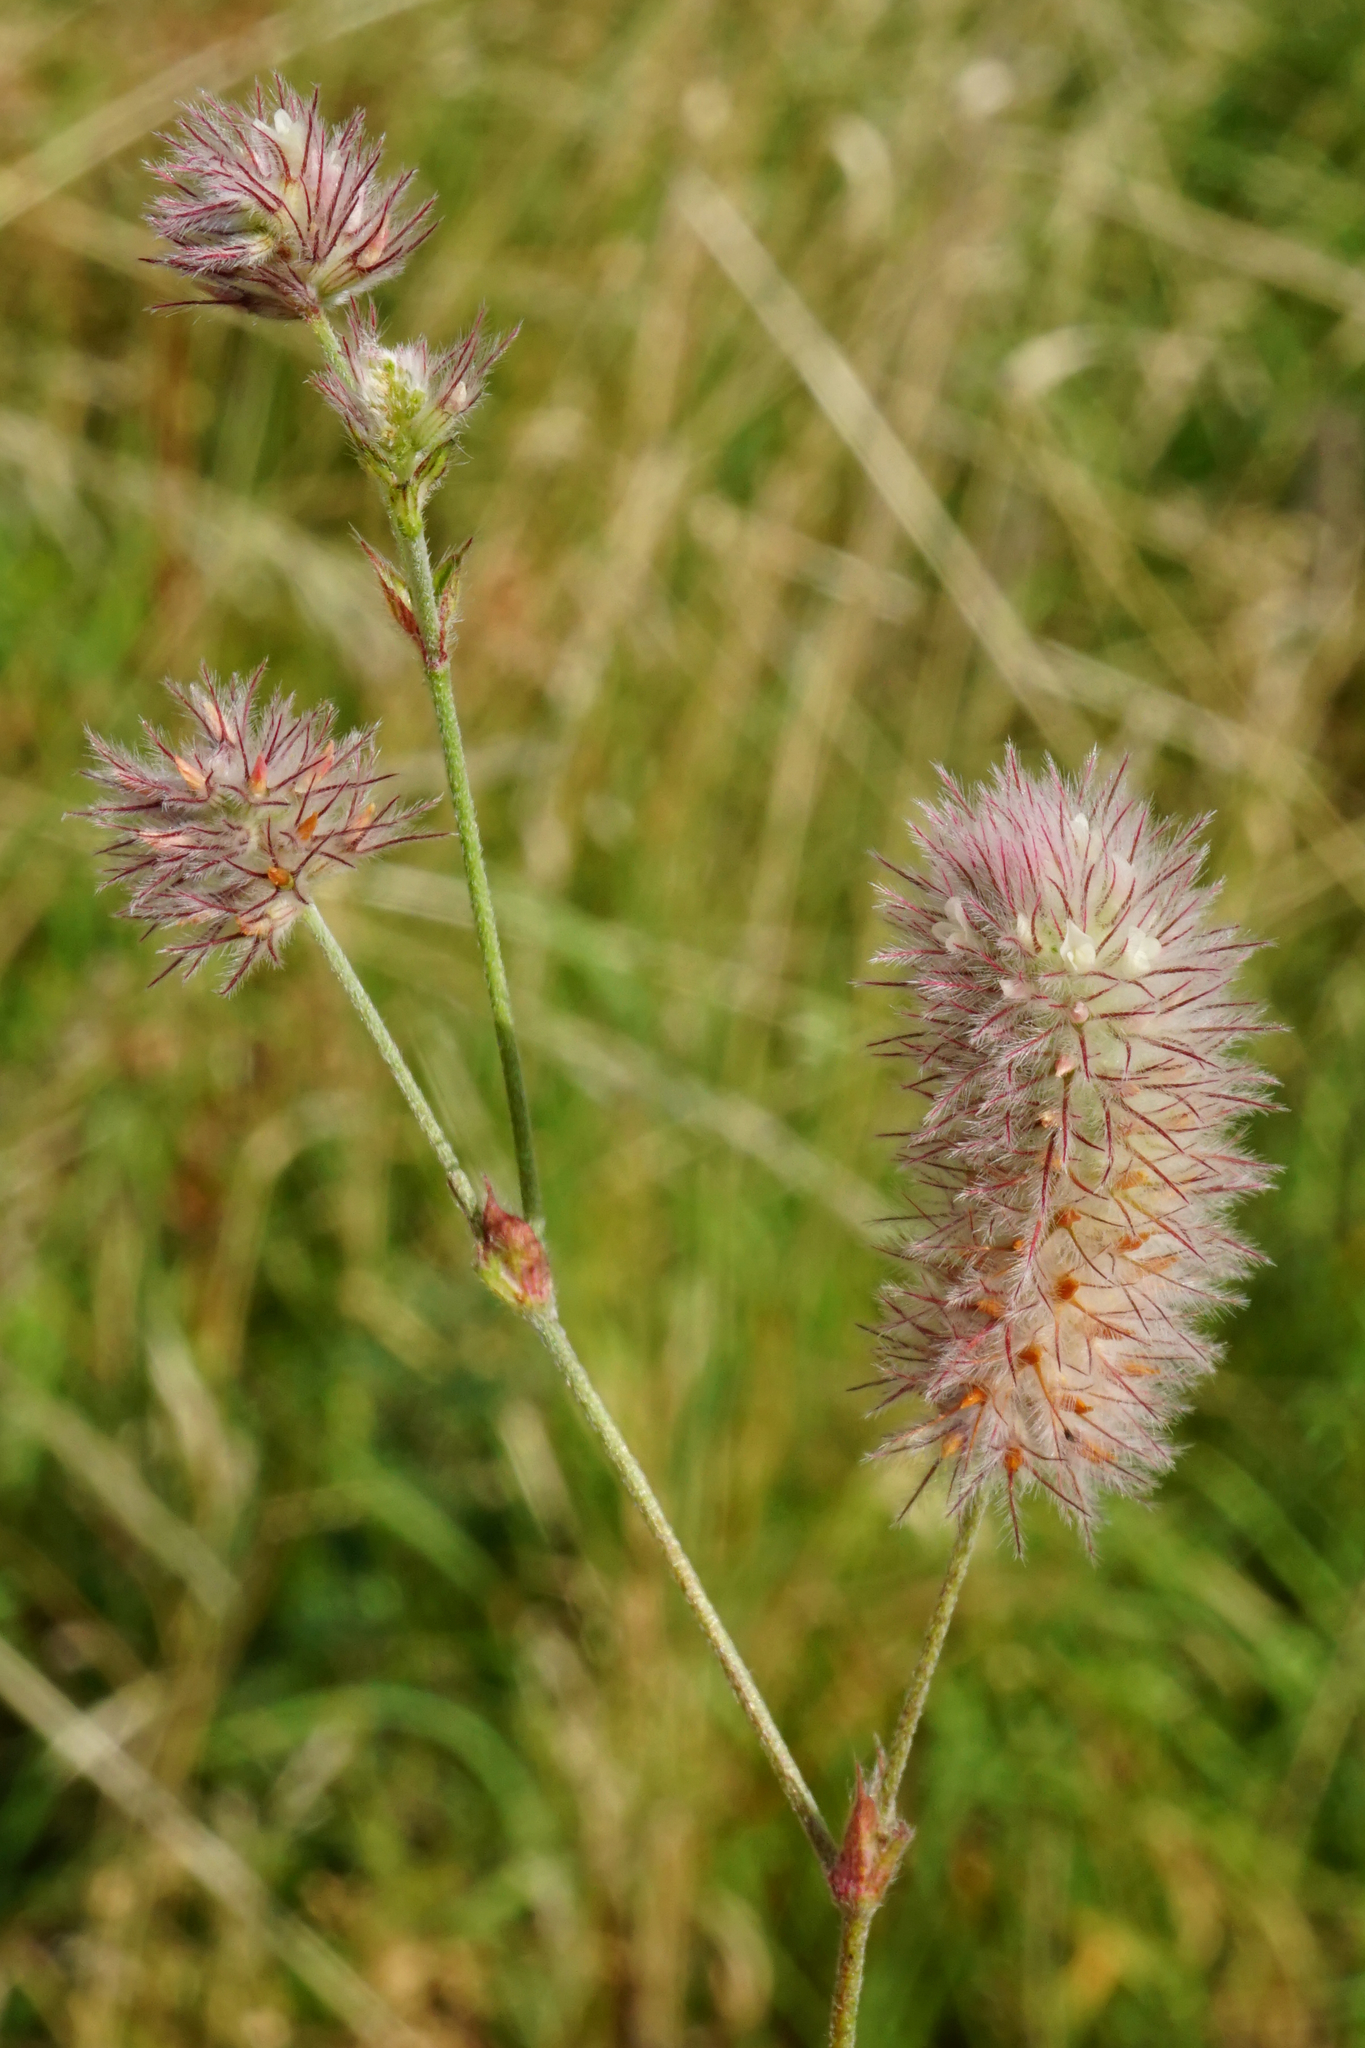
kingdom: Plantae
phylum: Tracheophyta
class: Magnoliopsida
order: Fabales
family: Fabaceae
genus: Trifolium
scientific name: Trifolium arvense
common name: Hare's-foot clover
